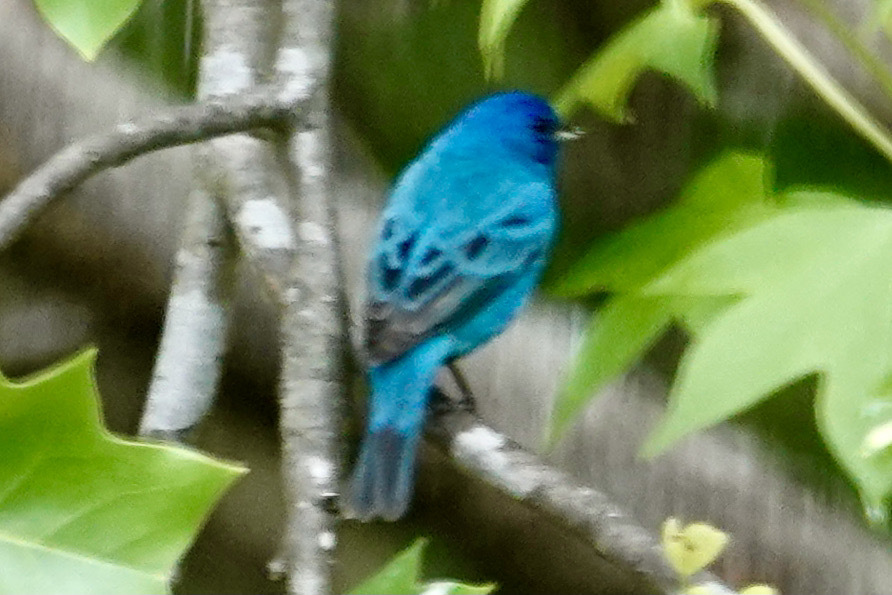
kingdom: Animalia
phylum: Chordata
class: Aves
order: Passeriformes
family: Cardinalidae
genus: Passerina
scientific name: Passerina cyanea
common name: Indigo bunting
